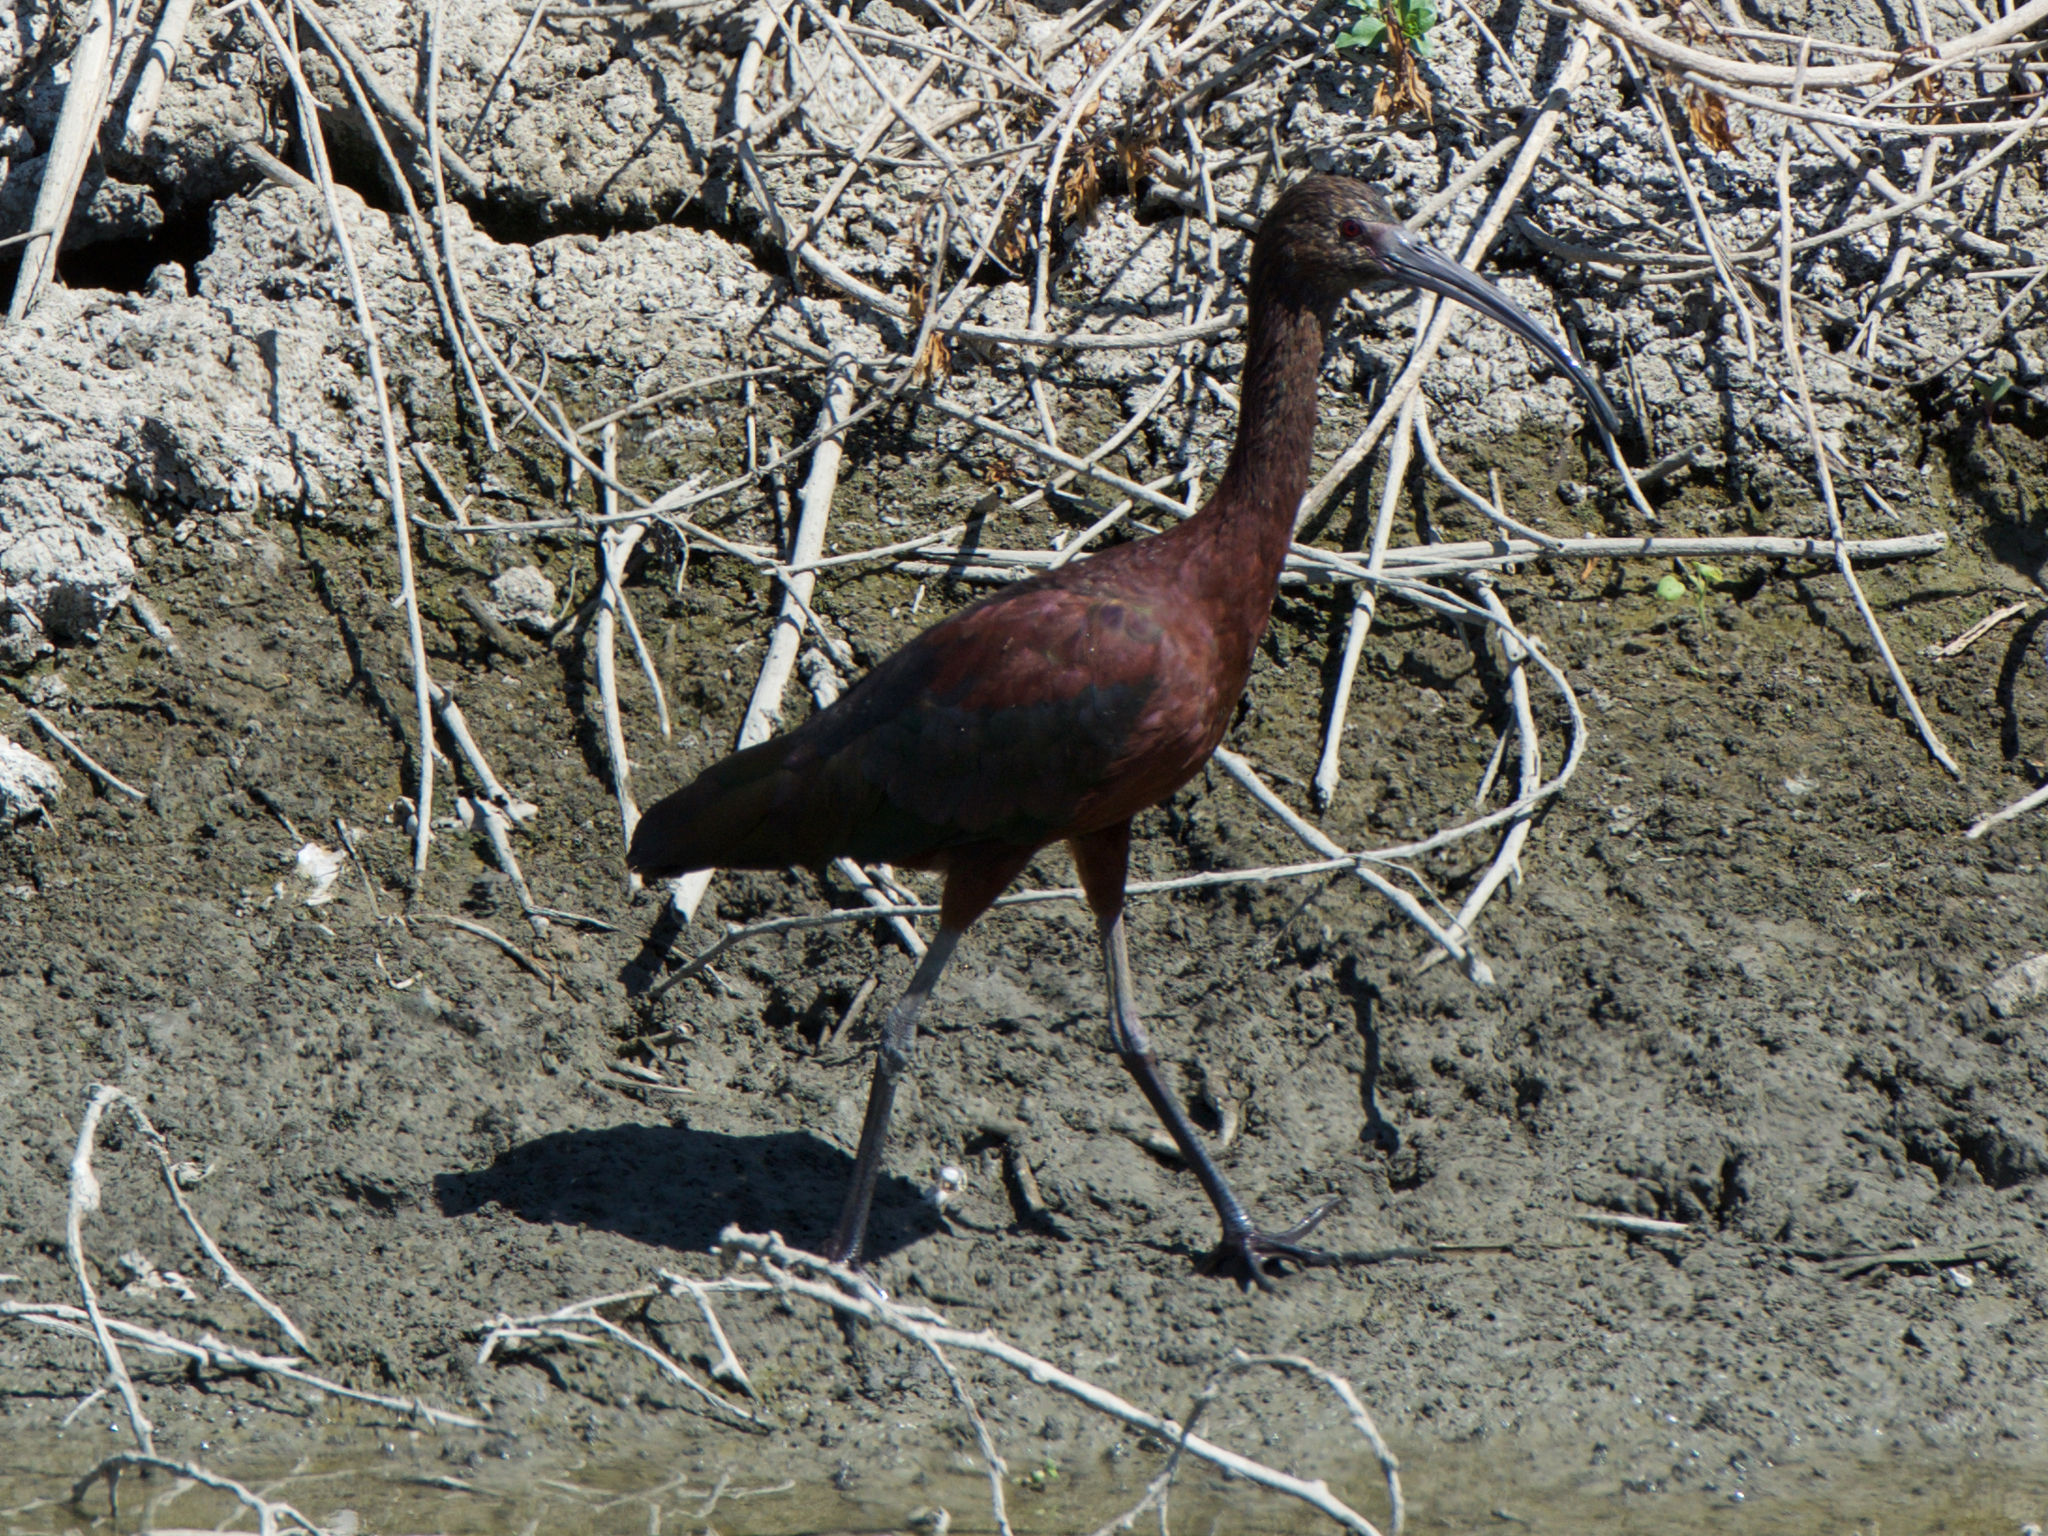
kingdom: Animalia
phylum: Chordata
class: Aves
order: Pelecaniformes
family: Threskiornithidae
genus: Plegadis
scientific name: Plegadis chihi
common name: White-faced ibis
